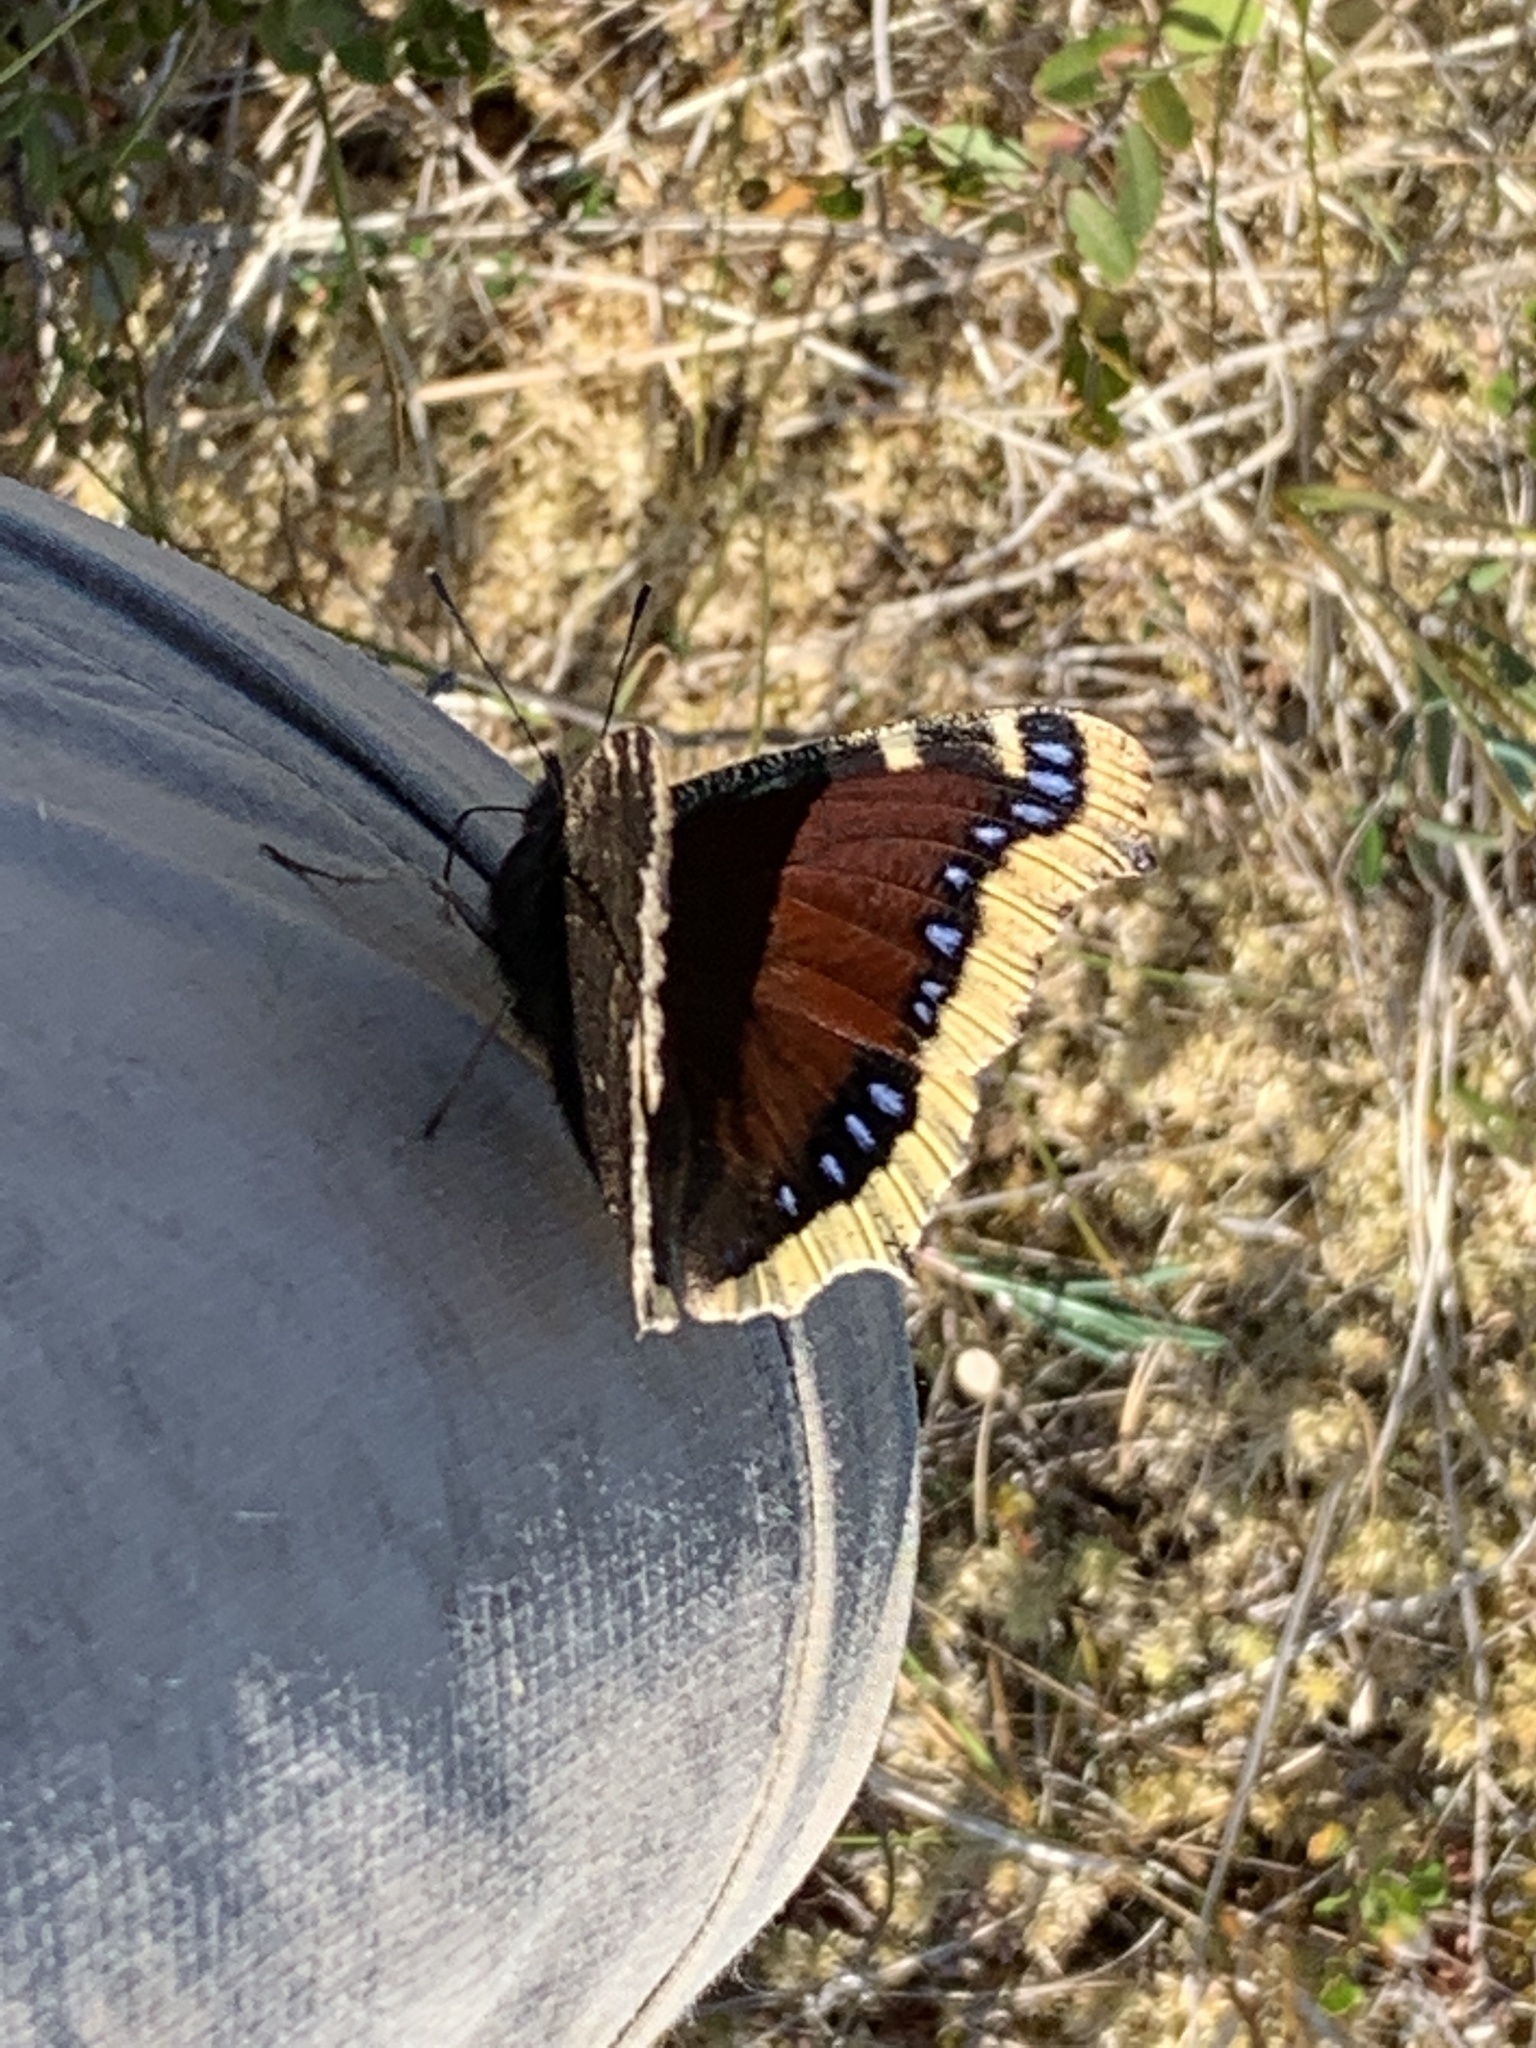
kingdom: Animalia
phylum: Arthropoda
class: Insecta
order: Lepidoptera
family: Nymphalidae
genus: Nymphalis
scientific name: Nymphalis antiopa
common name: Camberwell beauty
